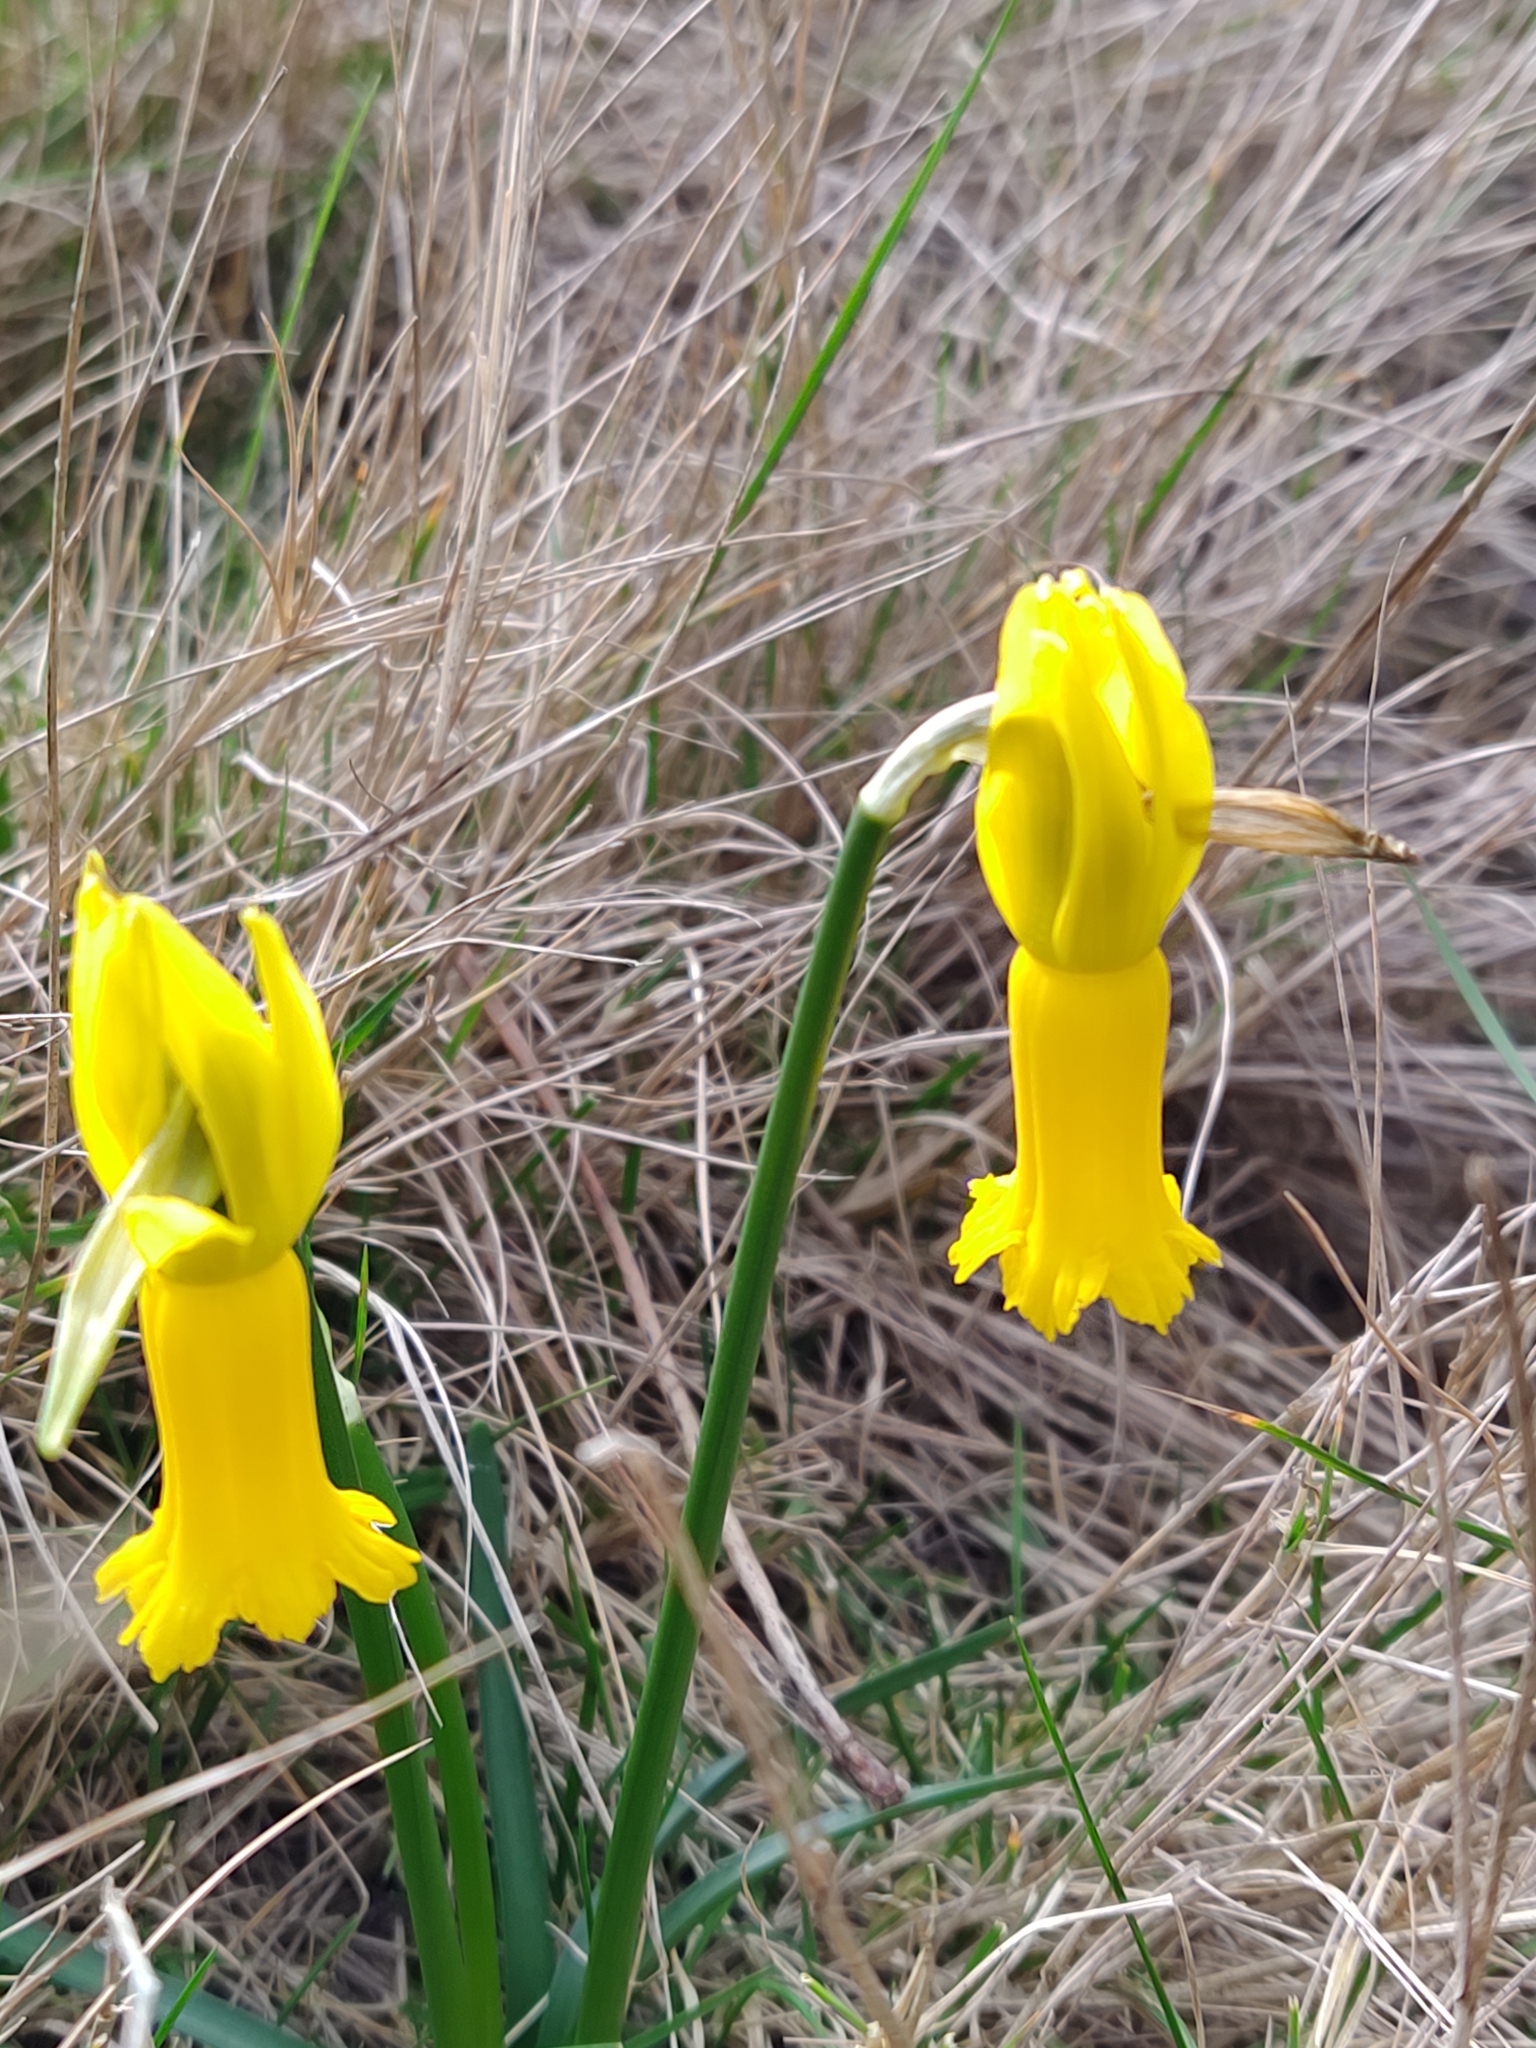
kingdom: Plantae
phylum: Tracheophyta
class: Liliopsida
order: Asparagales
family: Amaryllidaceae
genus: Narcissus
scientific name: Narcissus cyclamineus
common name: Cyclamen-flowered daffodil
